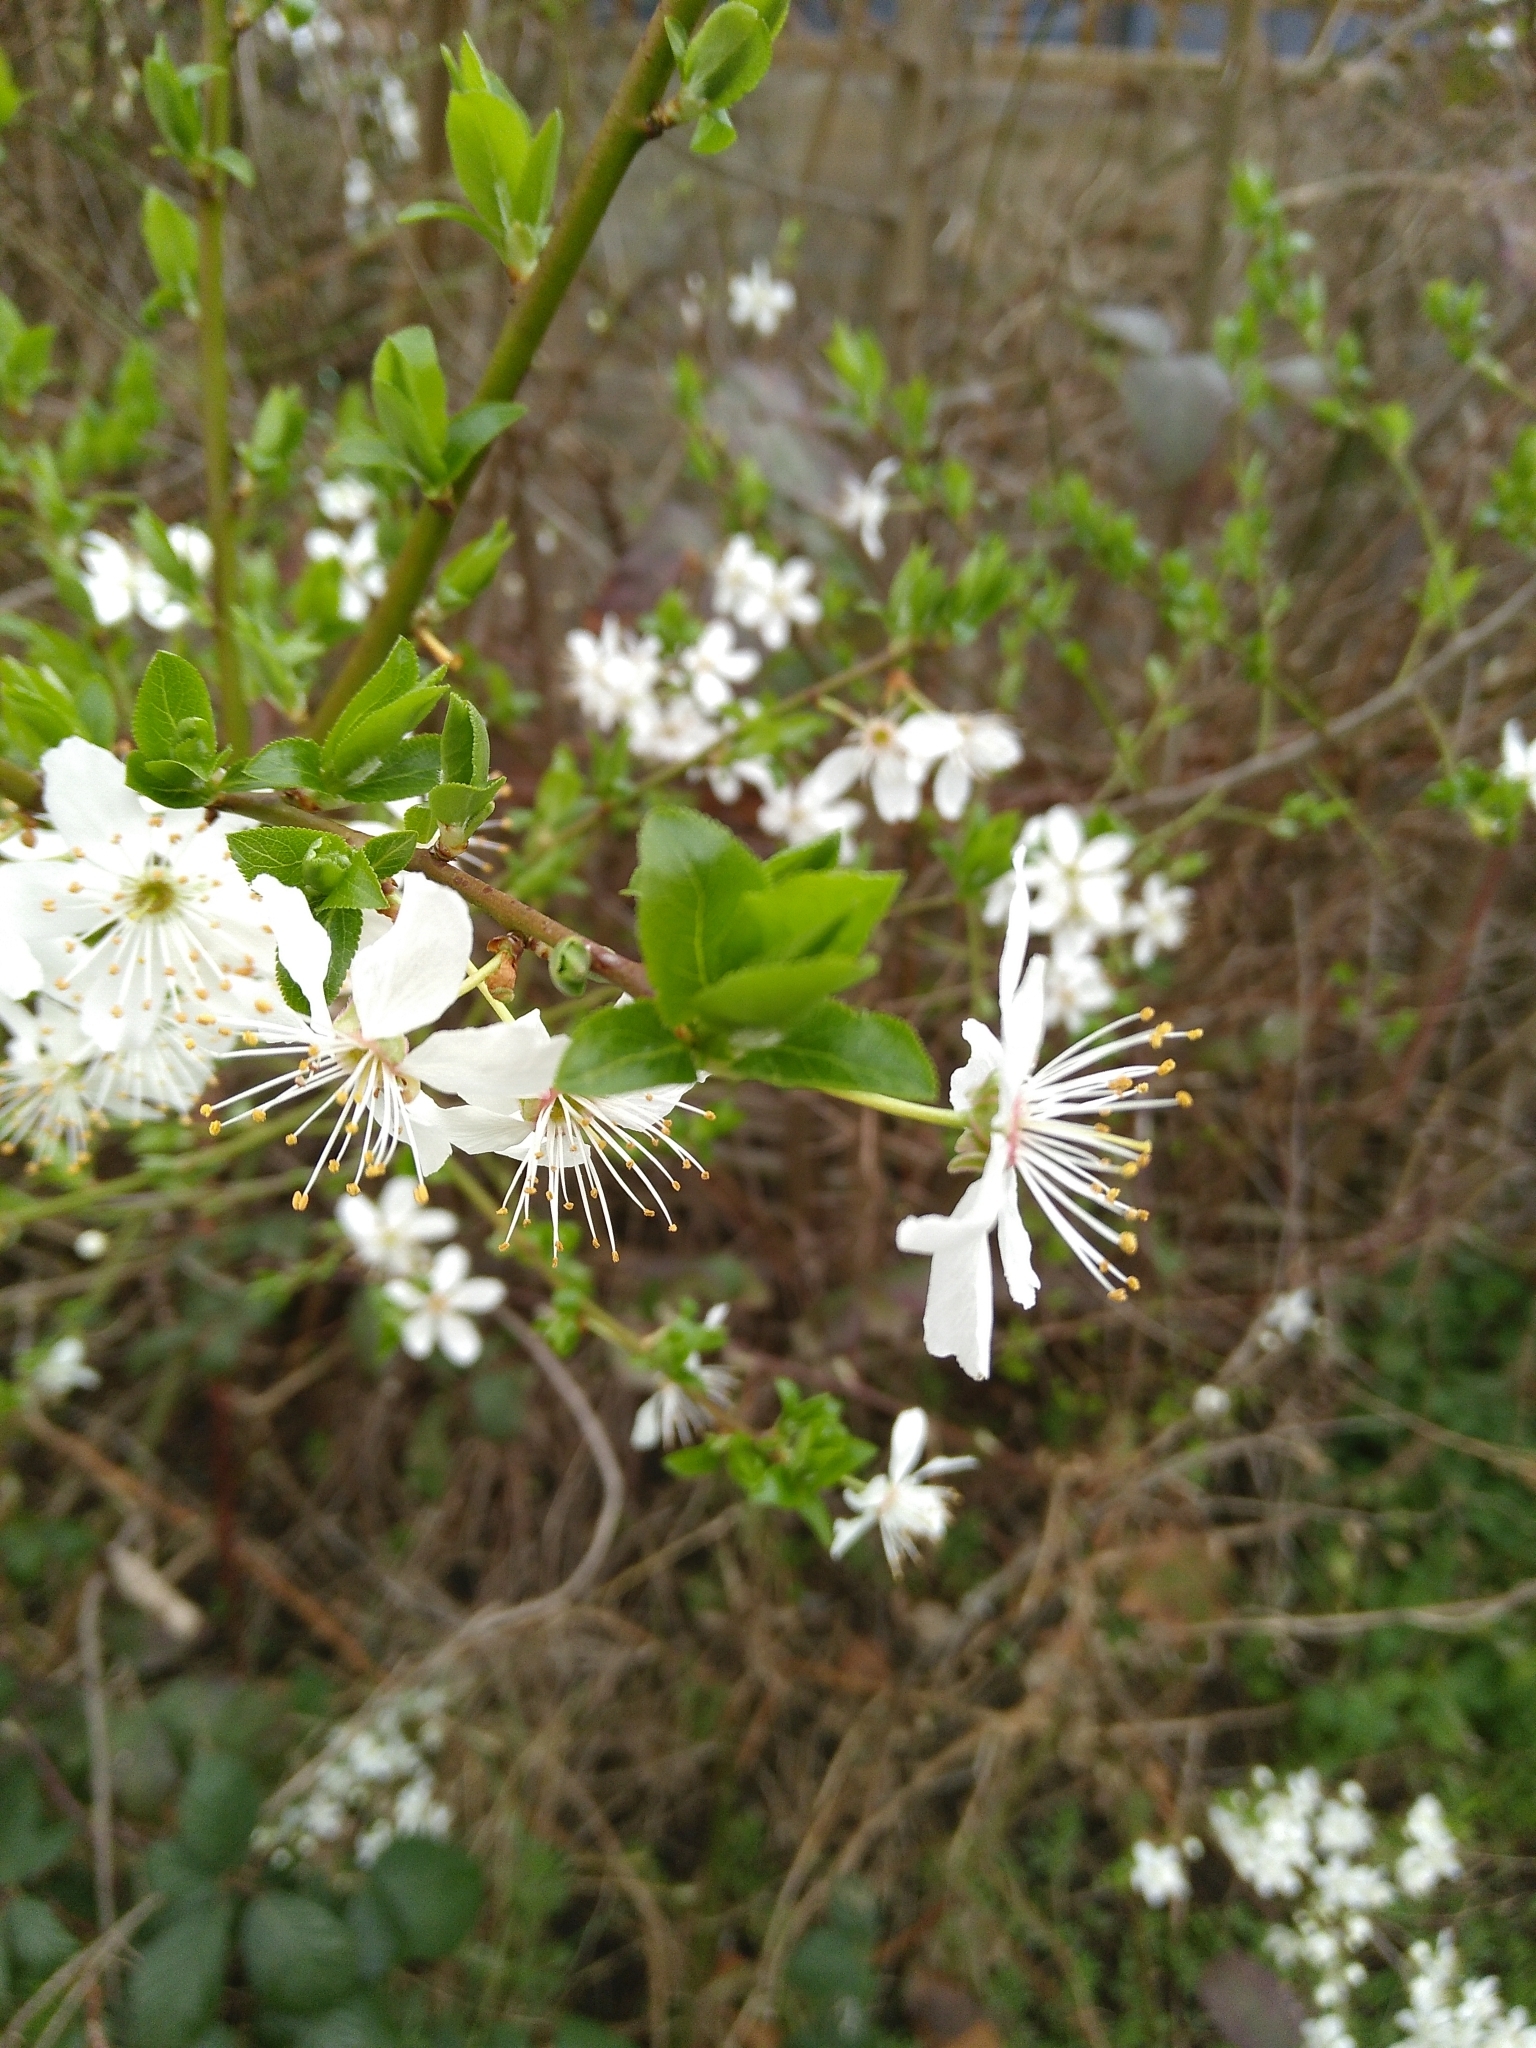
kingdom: Plantae
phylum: Tracheophyta
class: Magnoliopsida
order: Rosales
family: Rosaceae
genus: Prunus
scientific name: Prunus cerasifera
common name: Cherry plum
